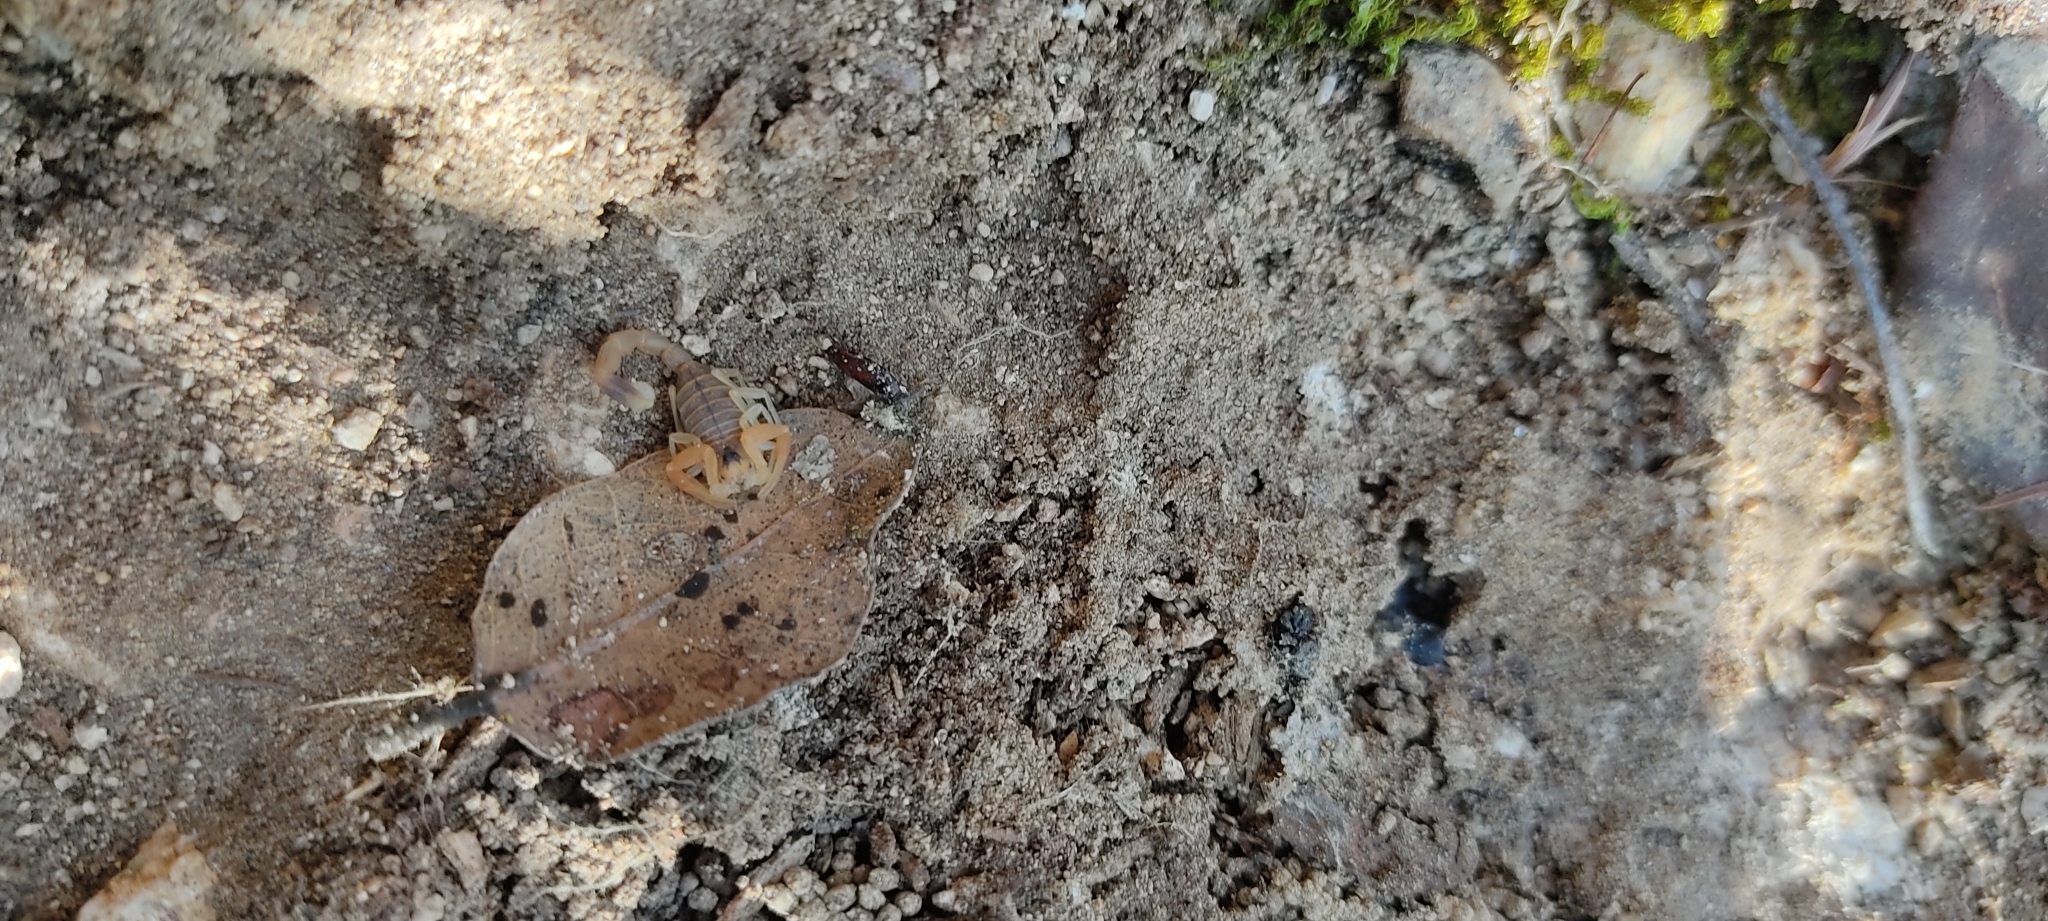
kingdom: Animalia
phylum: Arthropoda
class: Arachnida
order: Scorpiones
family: Buthidae
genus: Buthus
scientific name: Buthus occitanus
